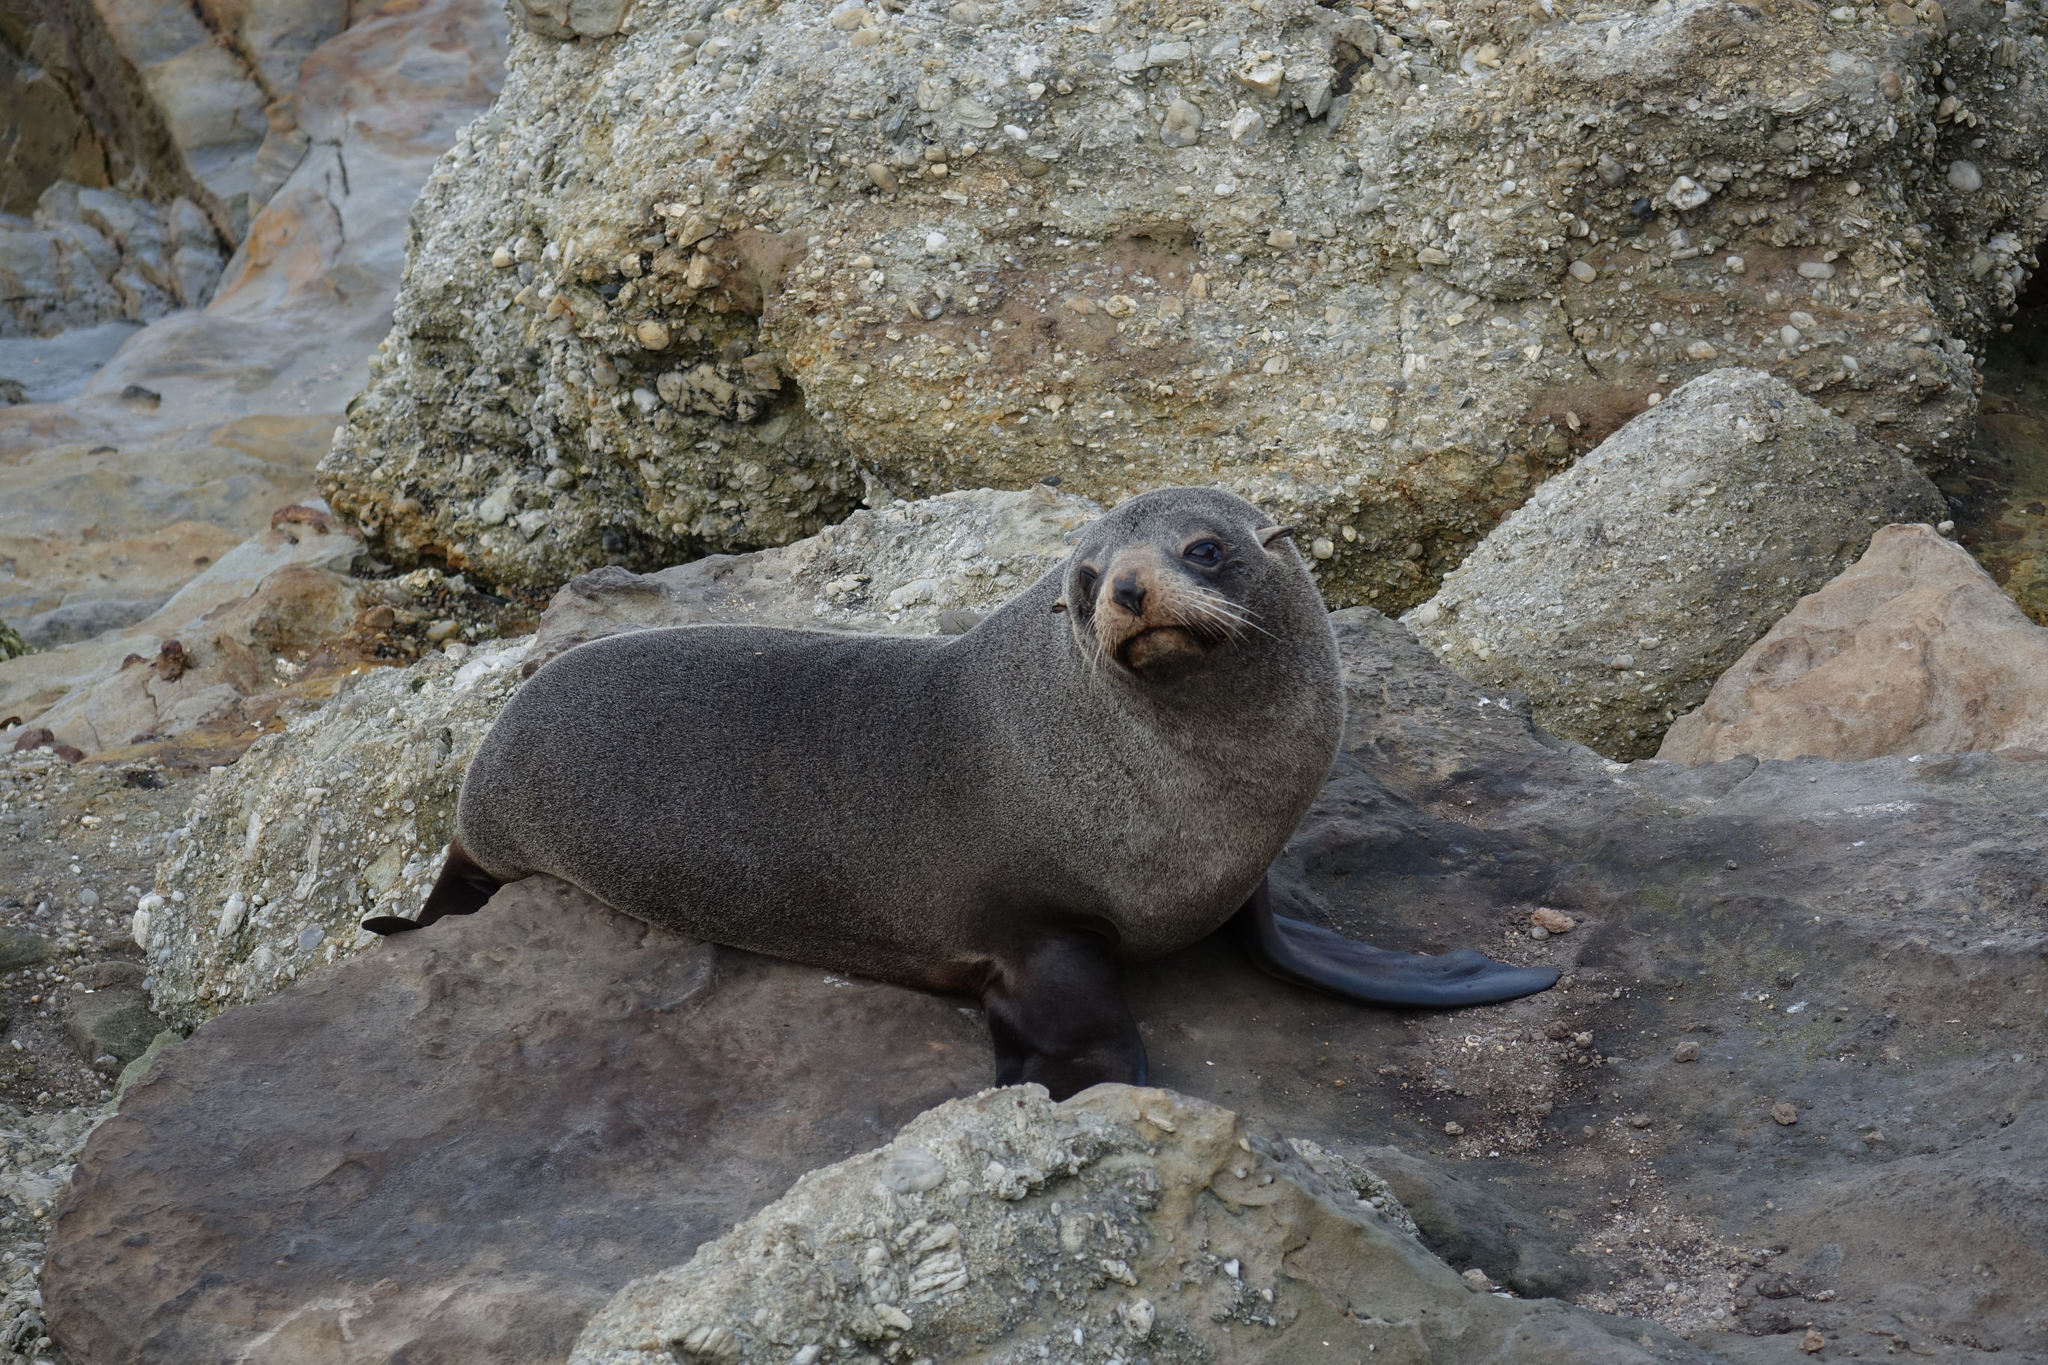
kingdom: Animalia
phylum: Chordata
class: Mammalia
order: Carnivora
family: Otariidae
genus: Arctocephalus
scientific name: Arctocephalus forsteri
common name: New zealand fur seal
